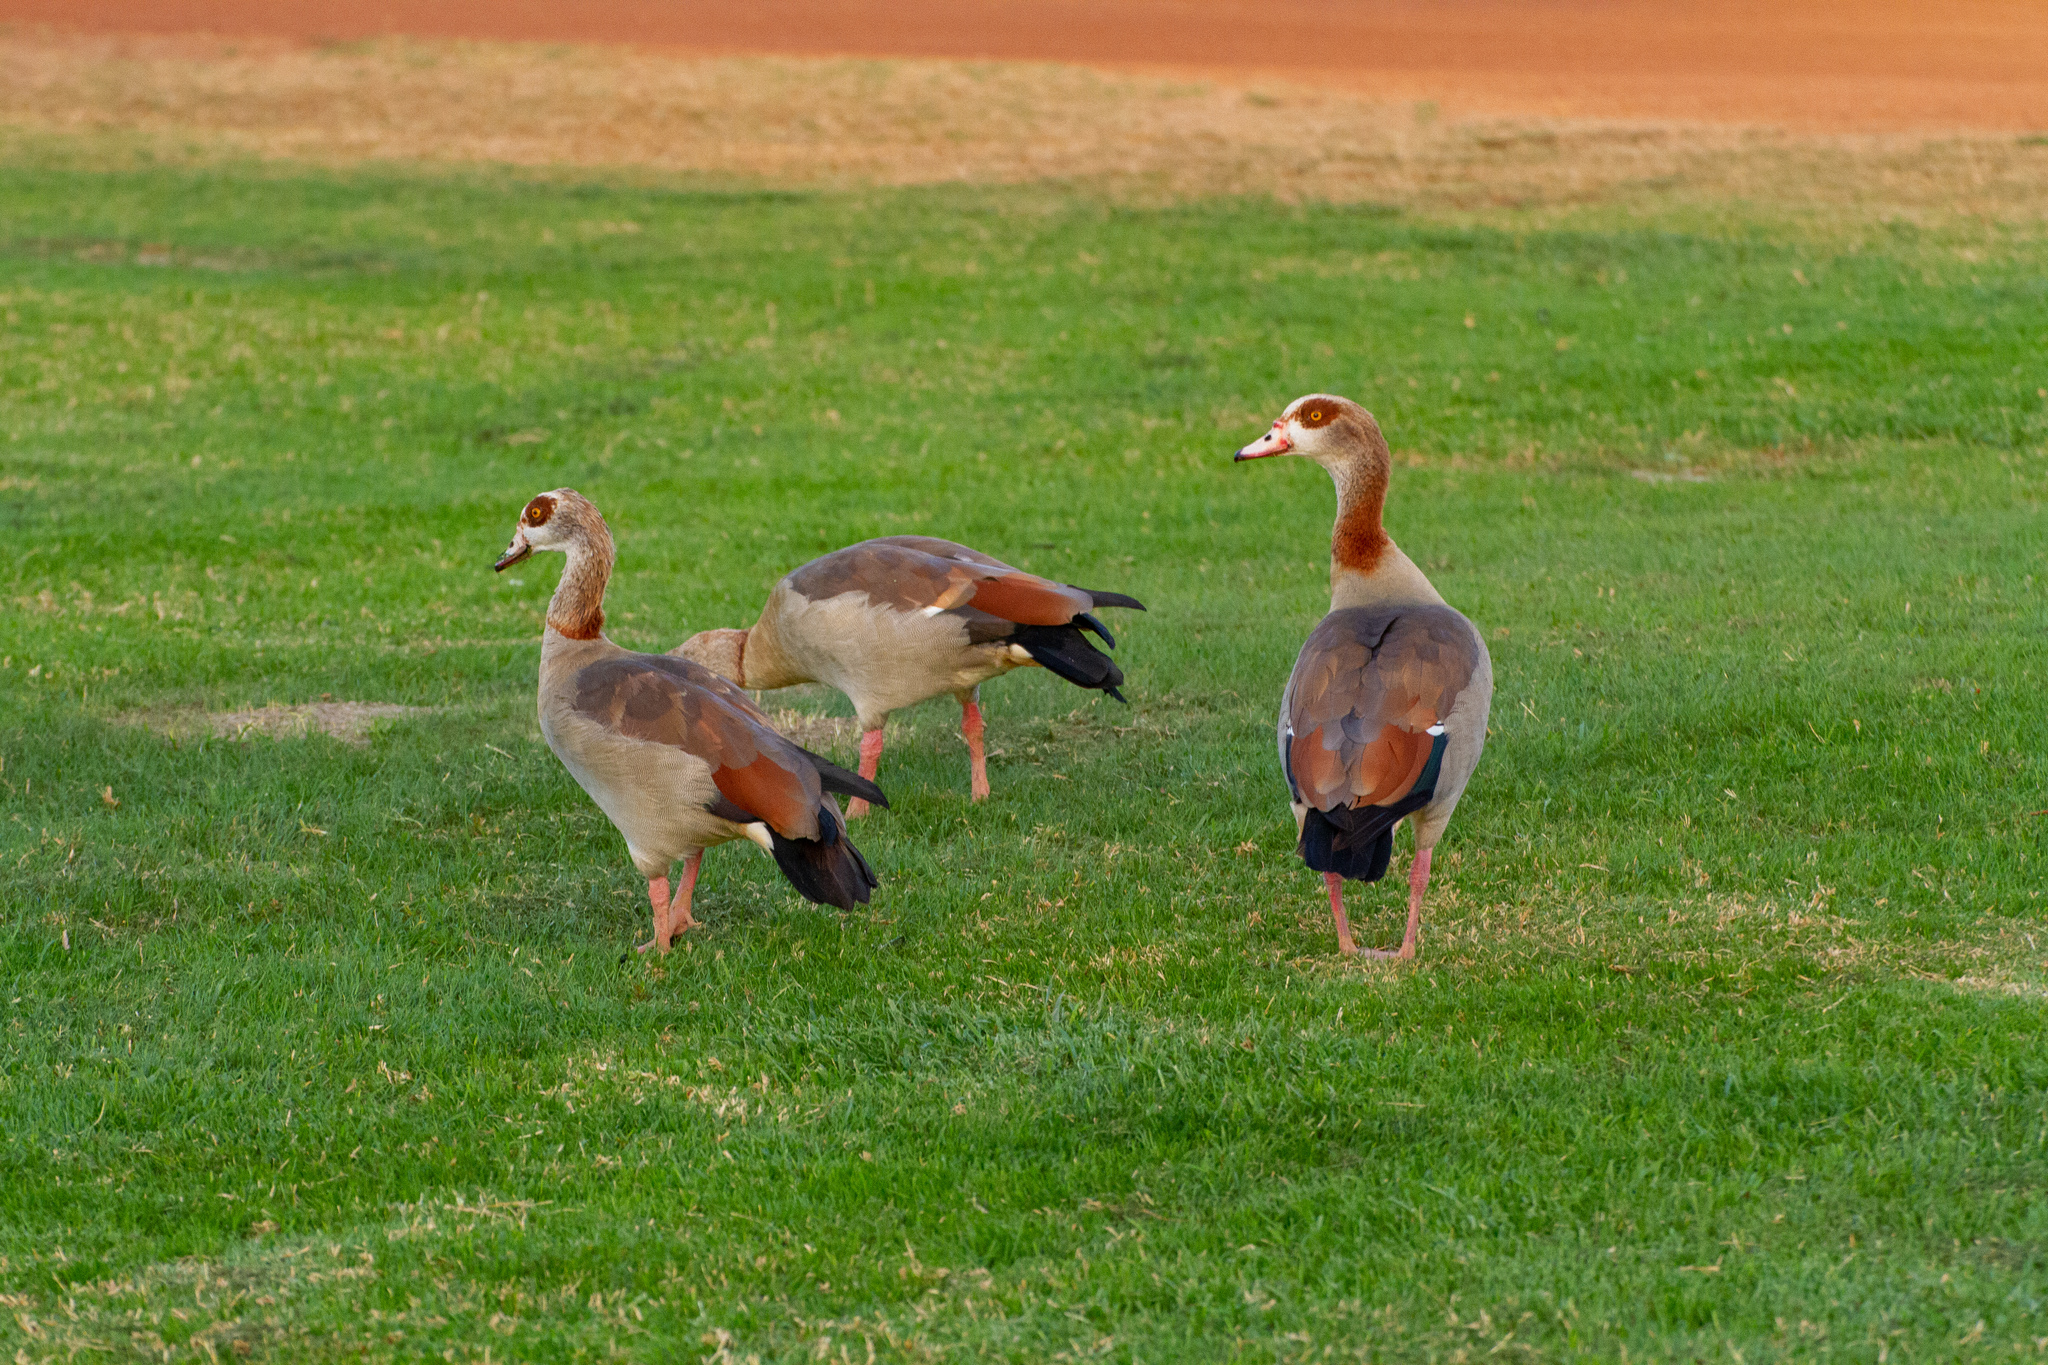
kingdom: Animalia
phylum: Chordata
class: Aves
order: Anseriformes
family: Anatidae
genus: Alopochen
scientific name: Alopochen aegyptiaca
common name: Egyptian goose
